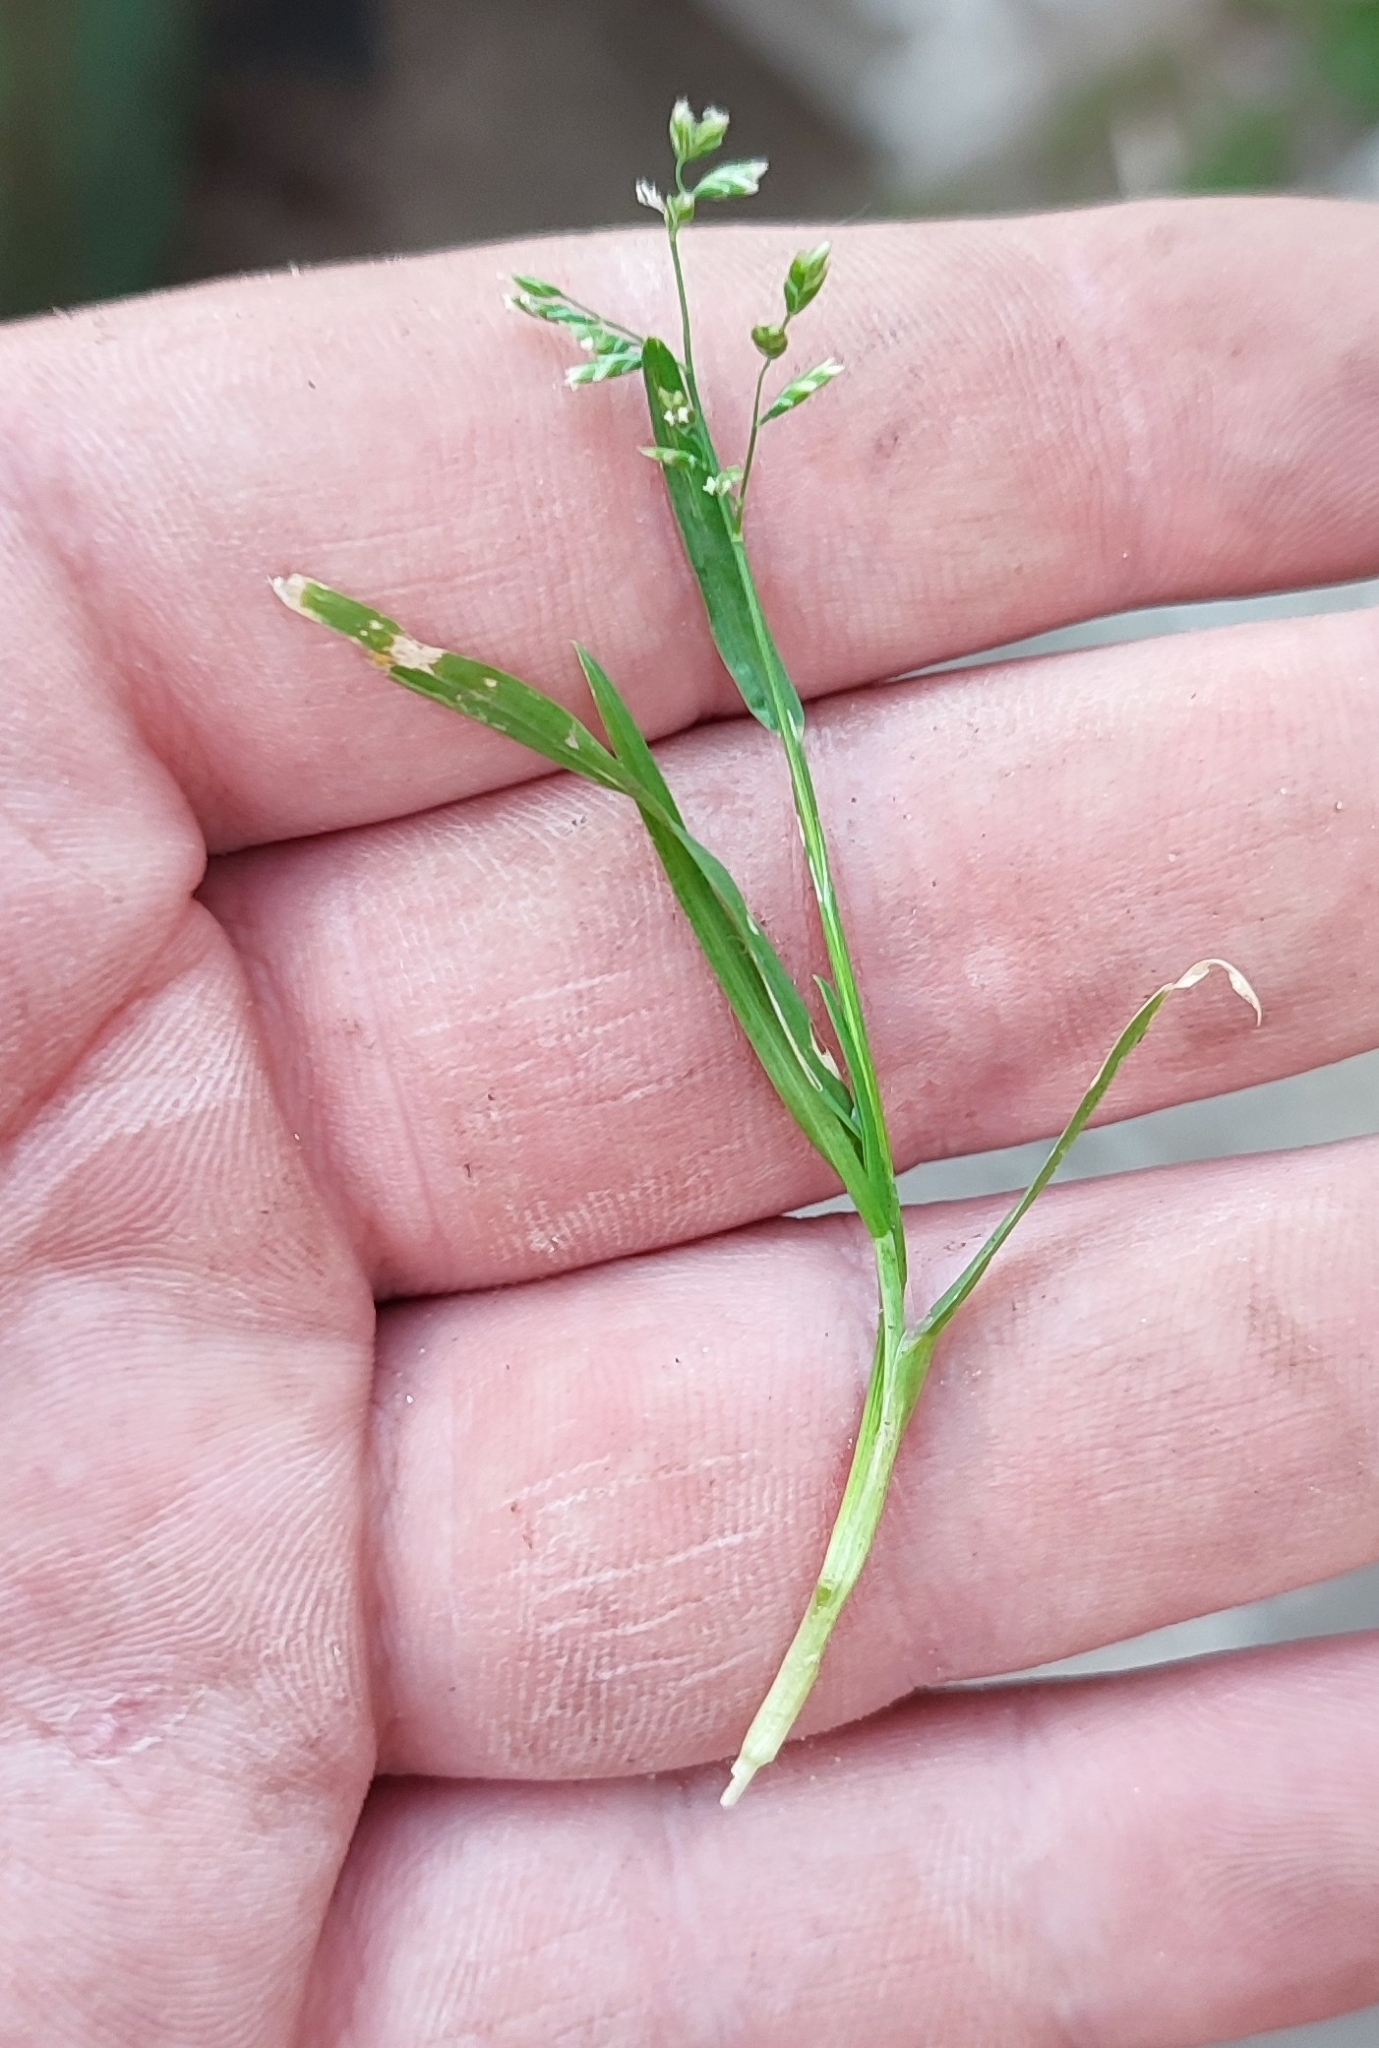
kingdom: Plantae
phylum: Tracheophyta
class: Liliopsida
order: Poales
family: Poaceae
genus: Poa
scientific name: Poa annua
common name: Annual bluegrass
